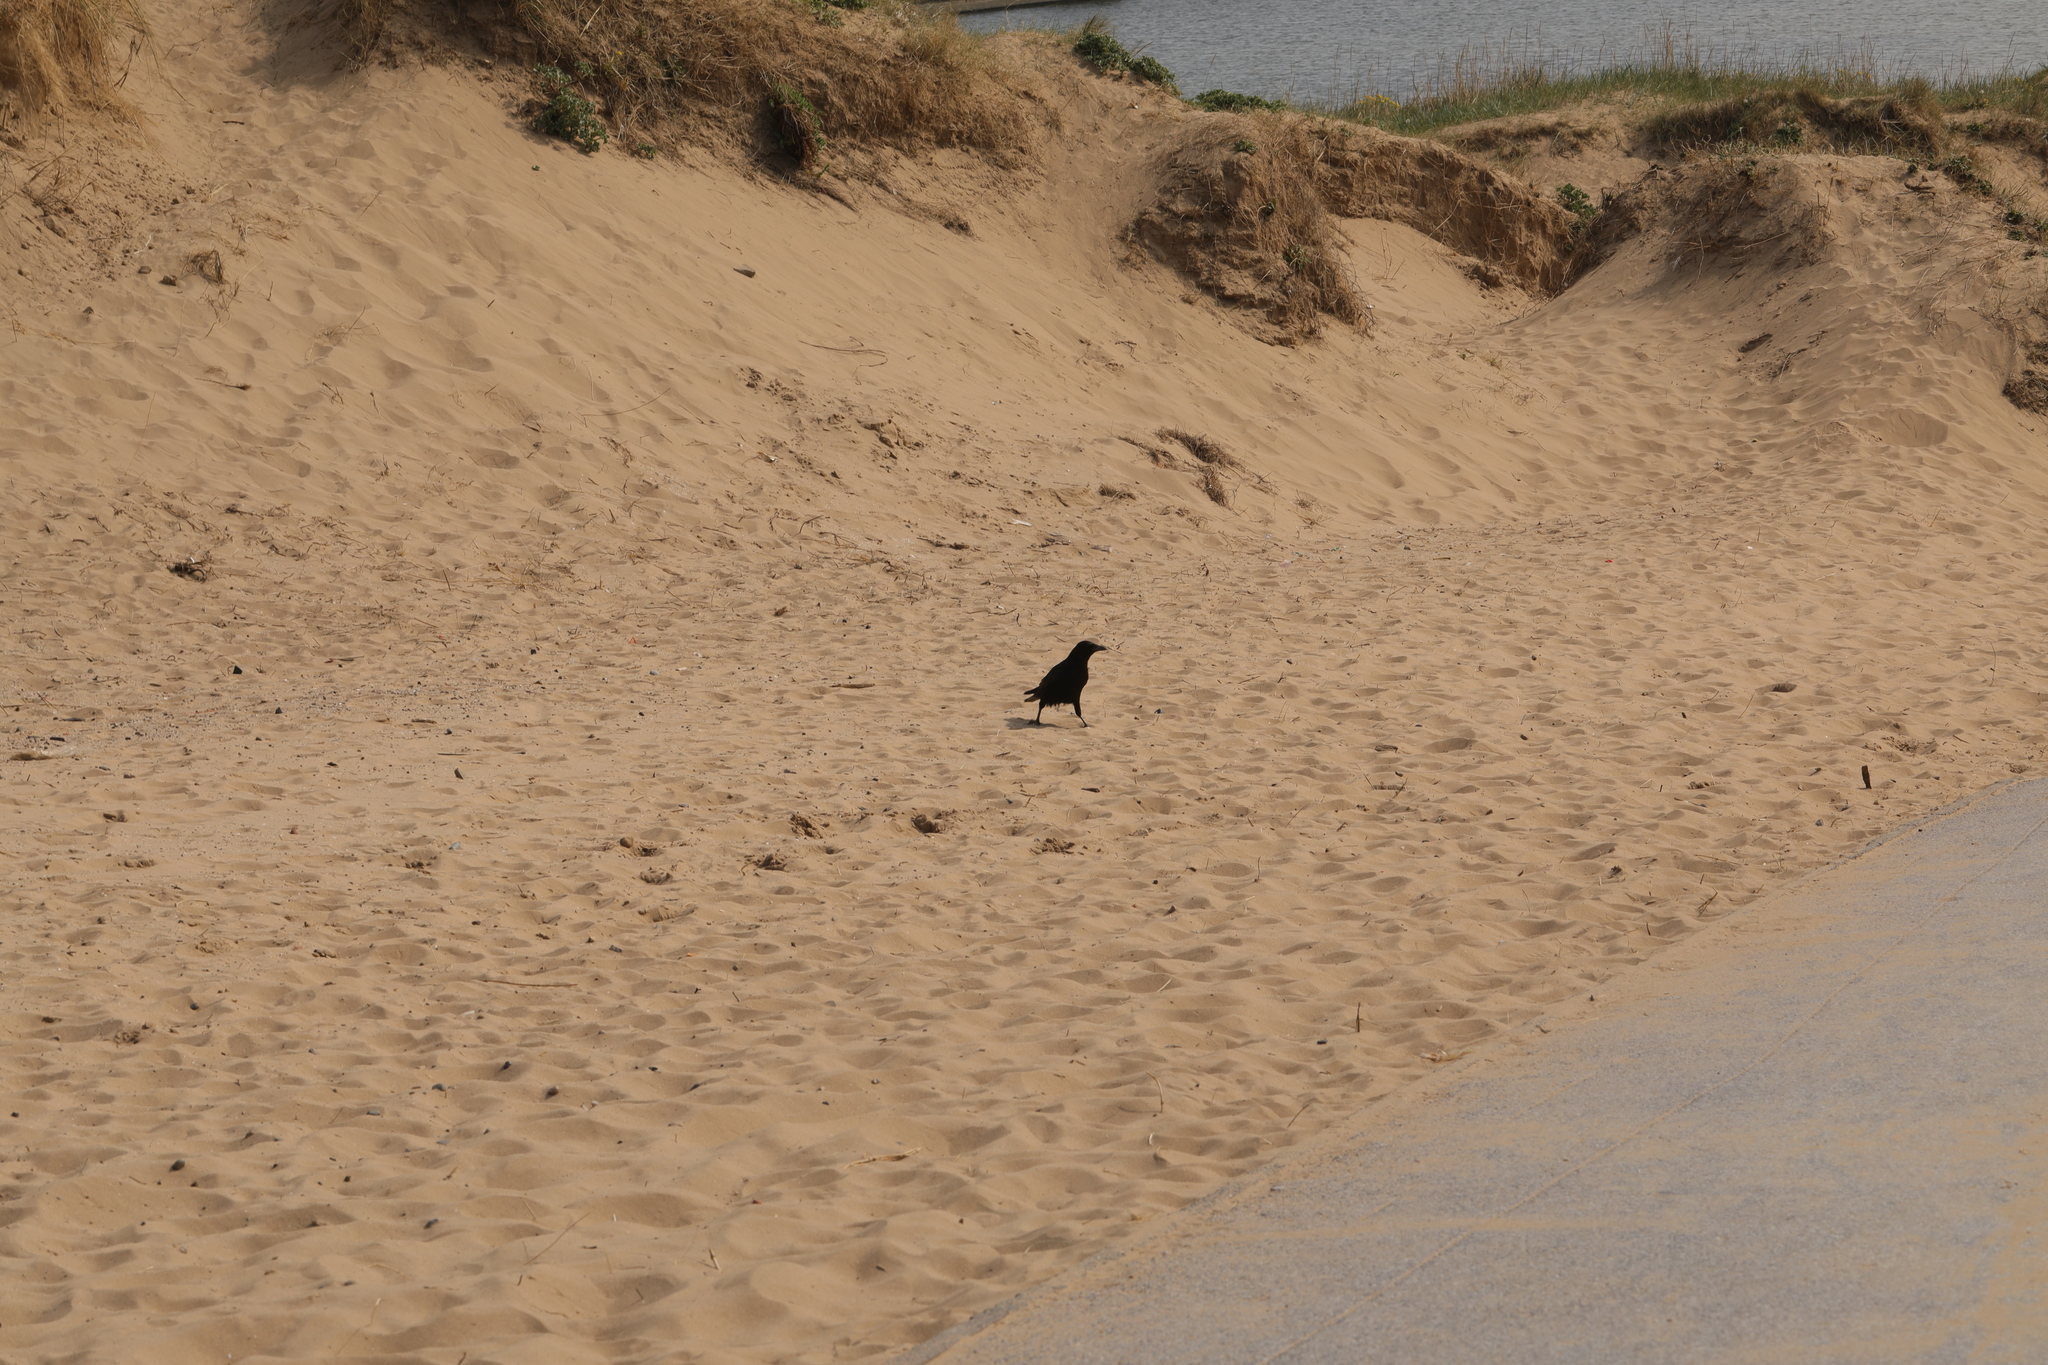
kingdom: Animalia
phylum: Chordata
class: Aves
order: Passeriformes
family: Corvidae
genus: Corvus
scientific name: Corvus corone
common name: Carrion crow
